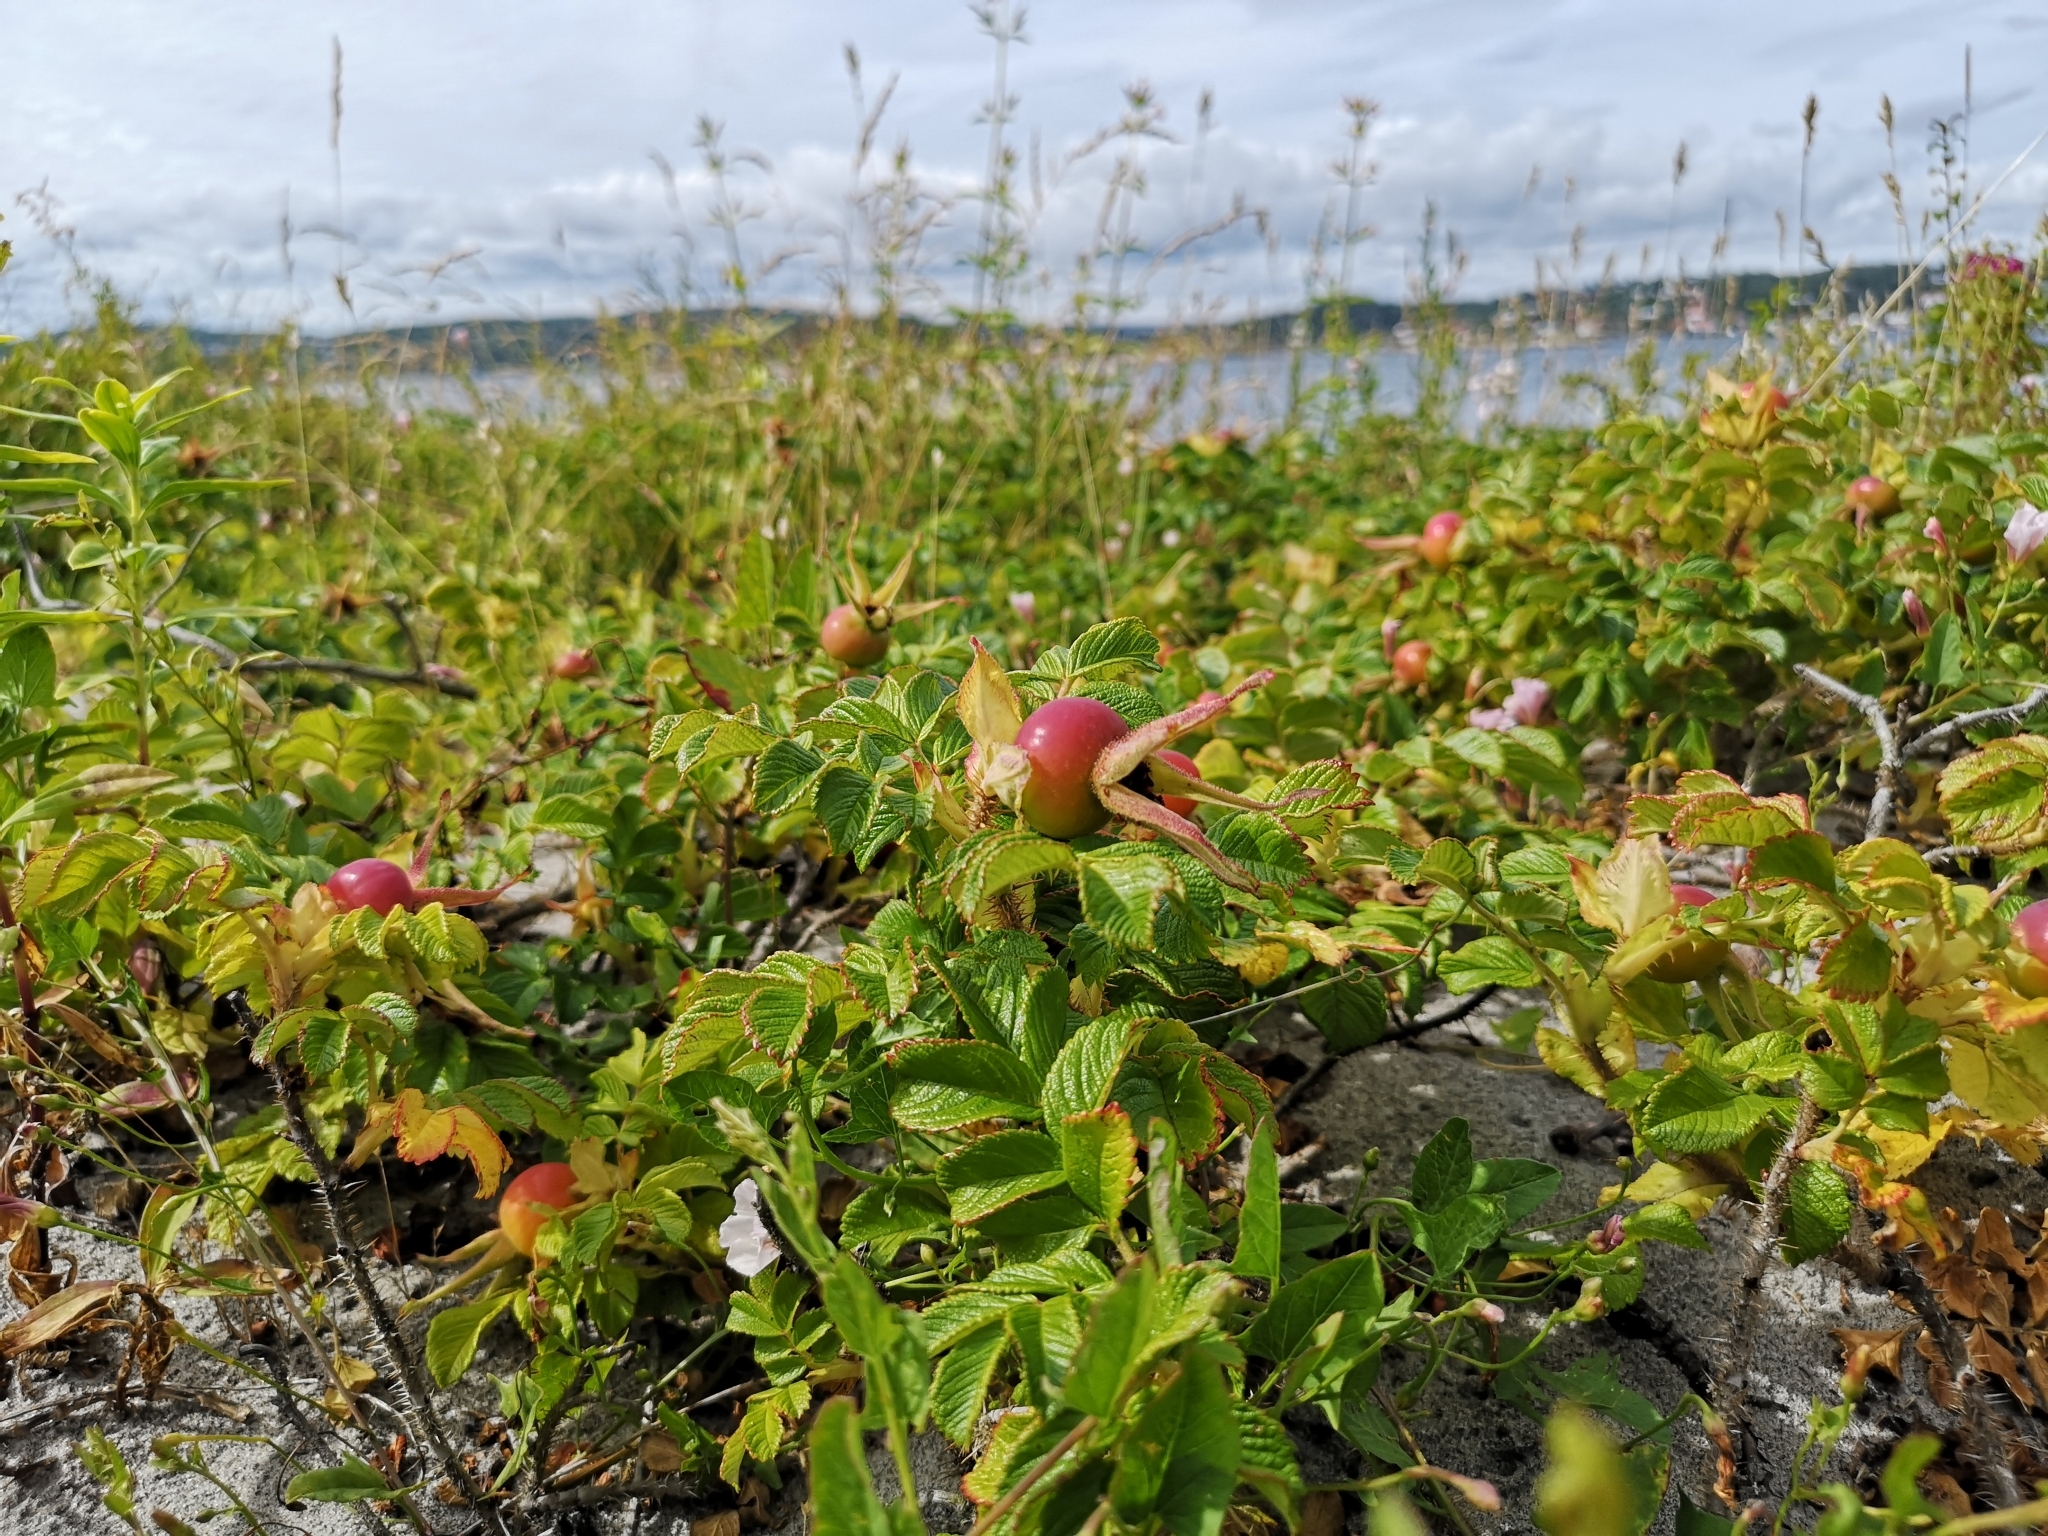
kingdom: Plantae
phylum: Tracheophyta
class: Magnoliopsida
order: Rosales
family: Rosaceae
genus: Rosa
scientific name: Rosa rugosa
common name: Japanese rose
